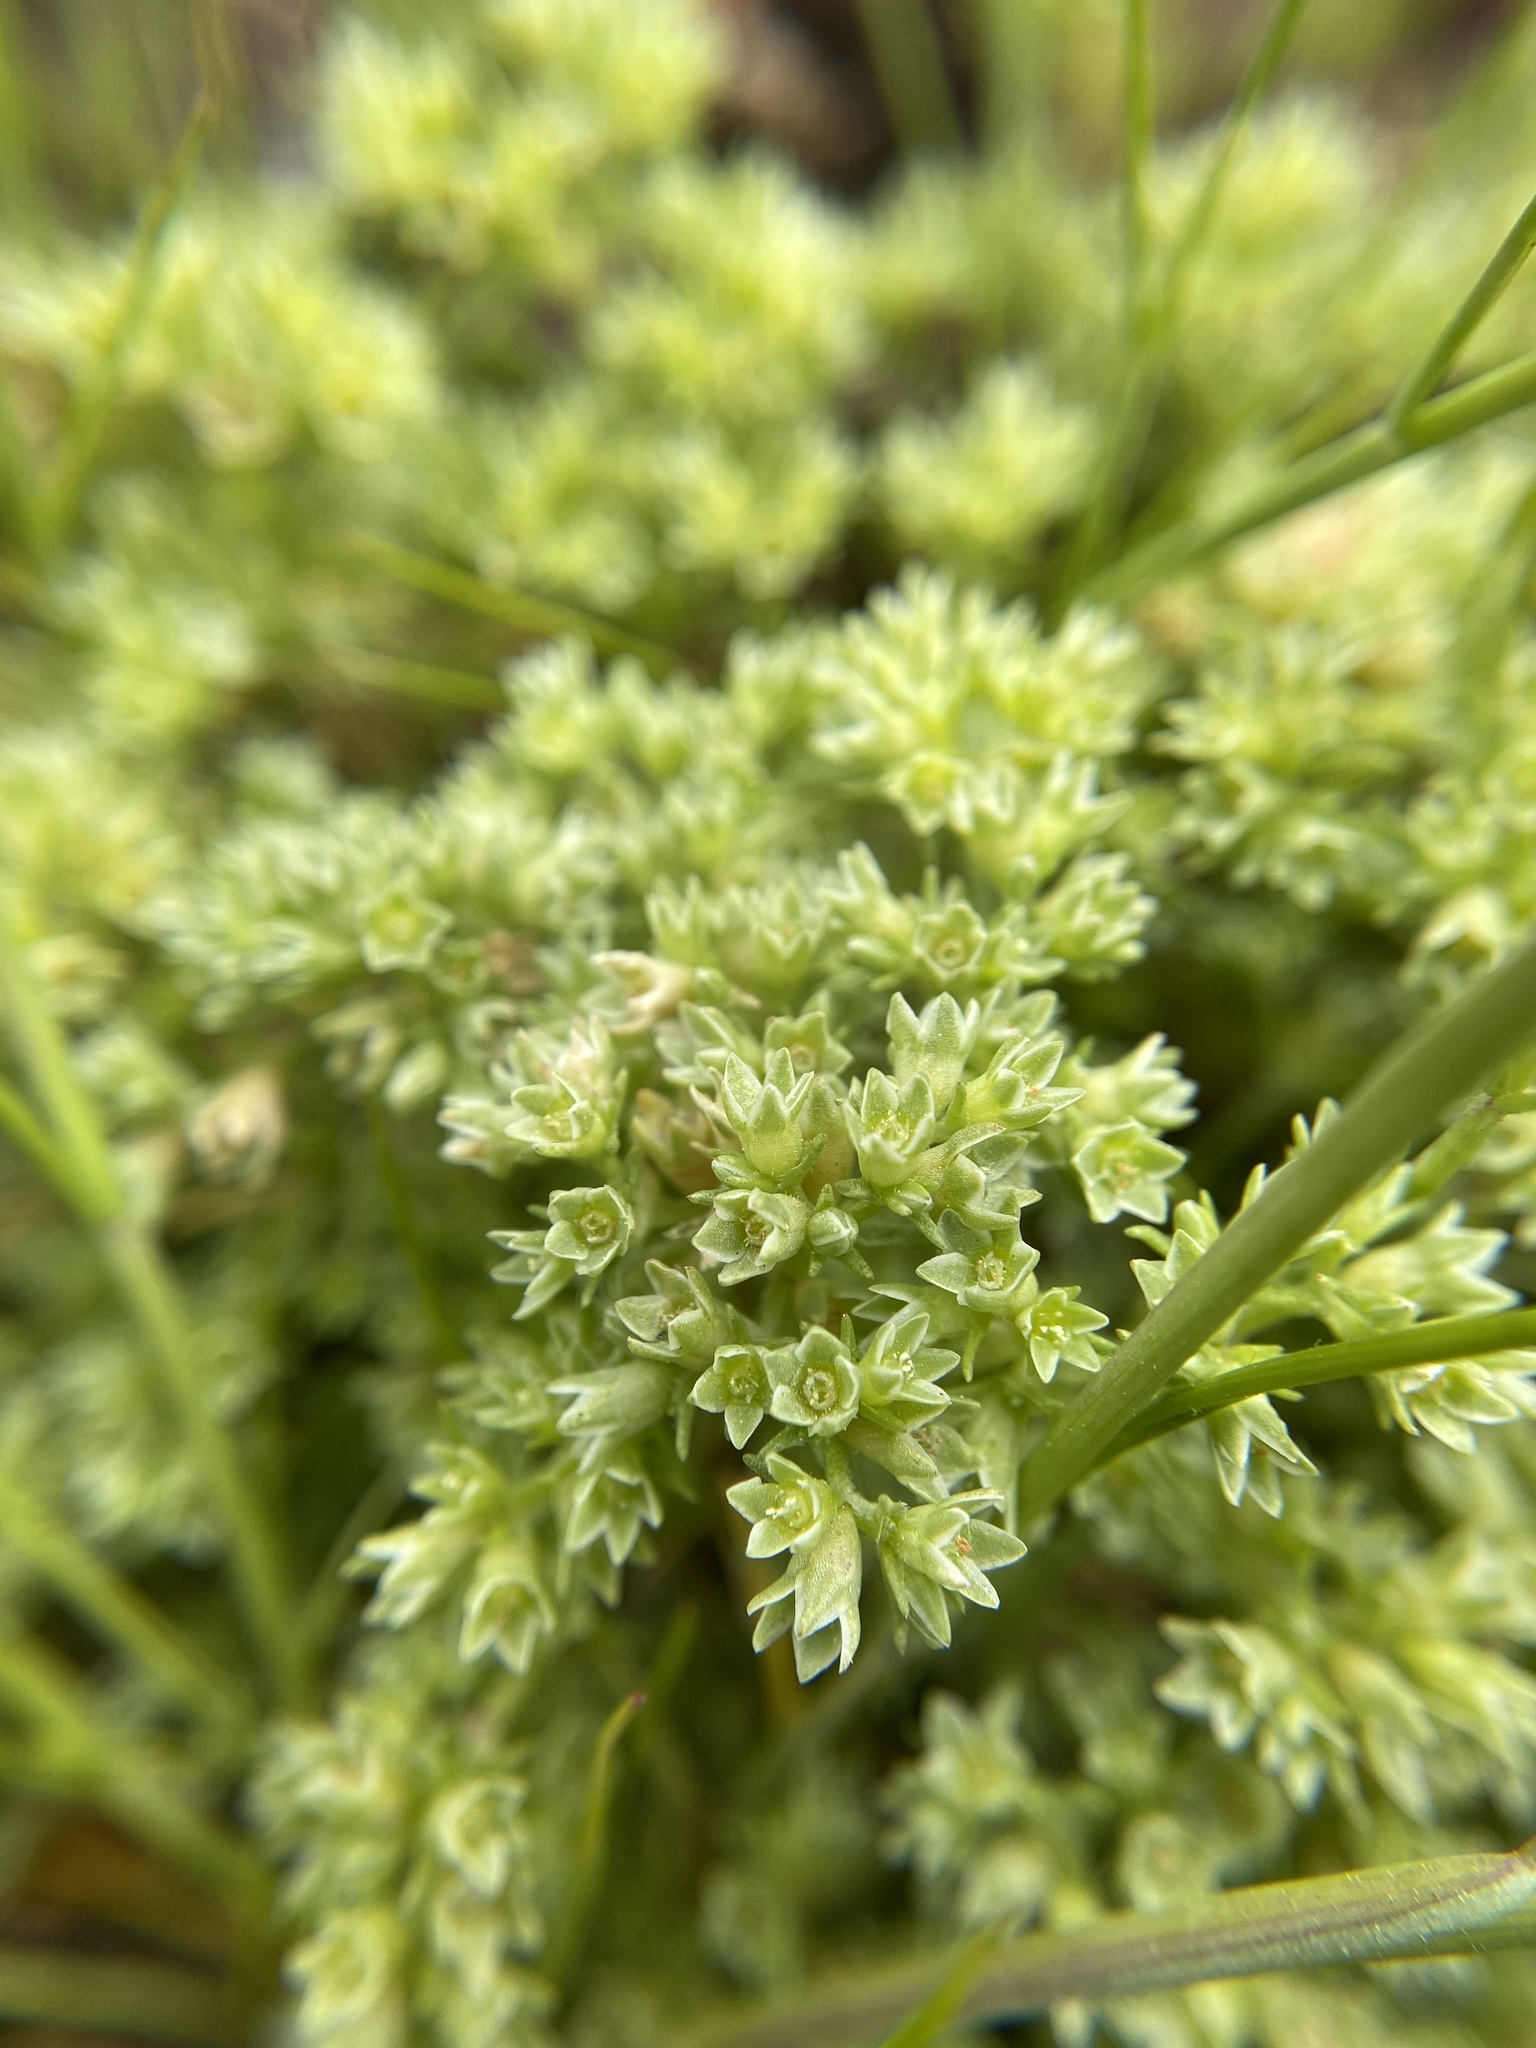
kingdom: Plantae
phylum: Tracheophyta
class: Magnoliopsida
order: Caryophyllales
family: Caryophyllaceae
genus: Scleranthus
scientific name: Scleranthus annuus
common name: Annual knawel
